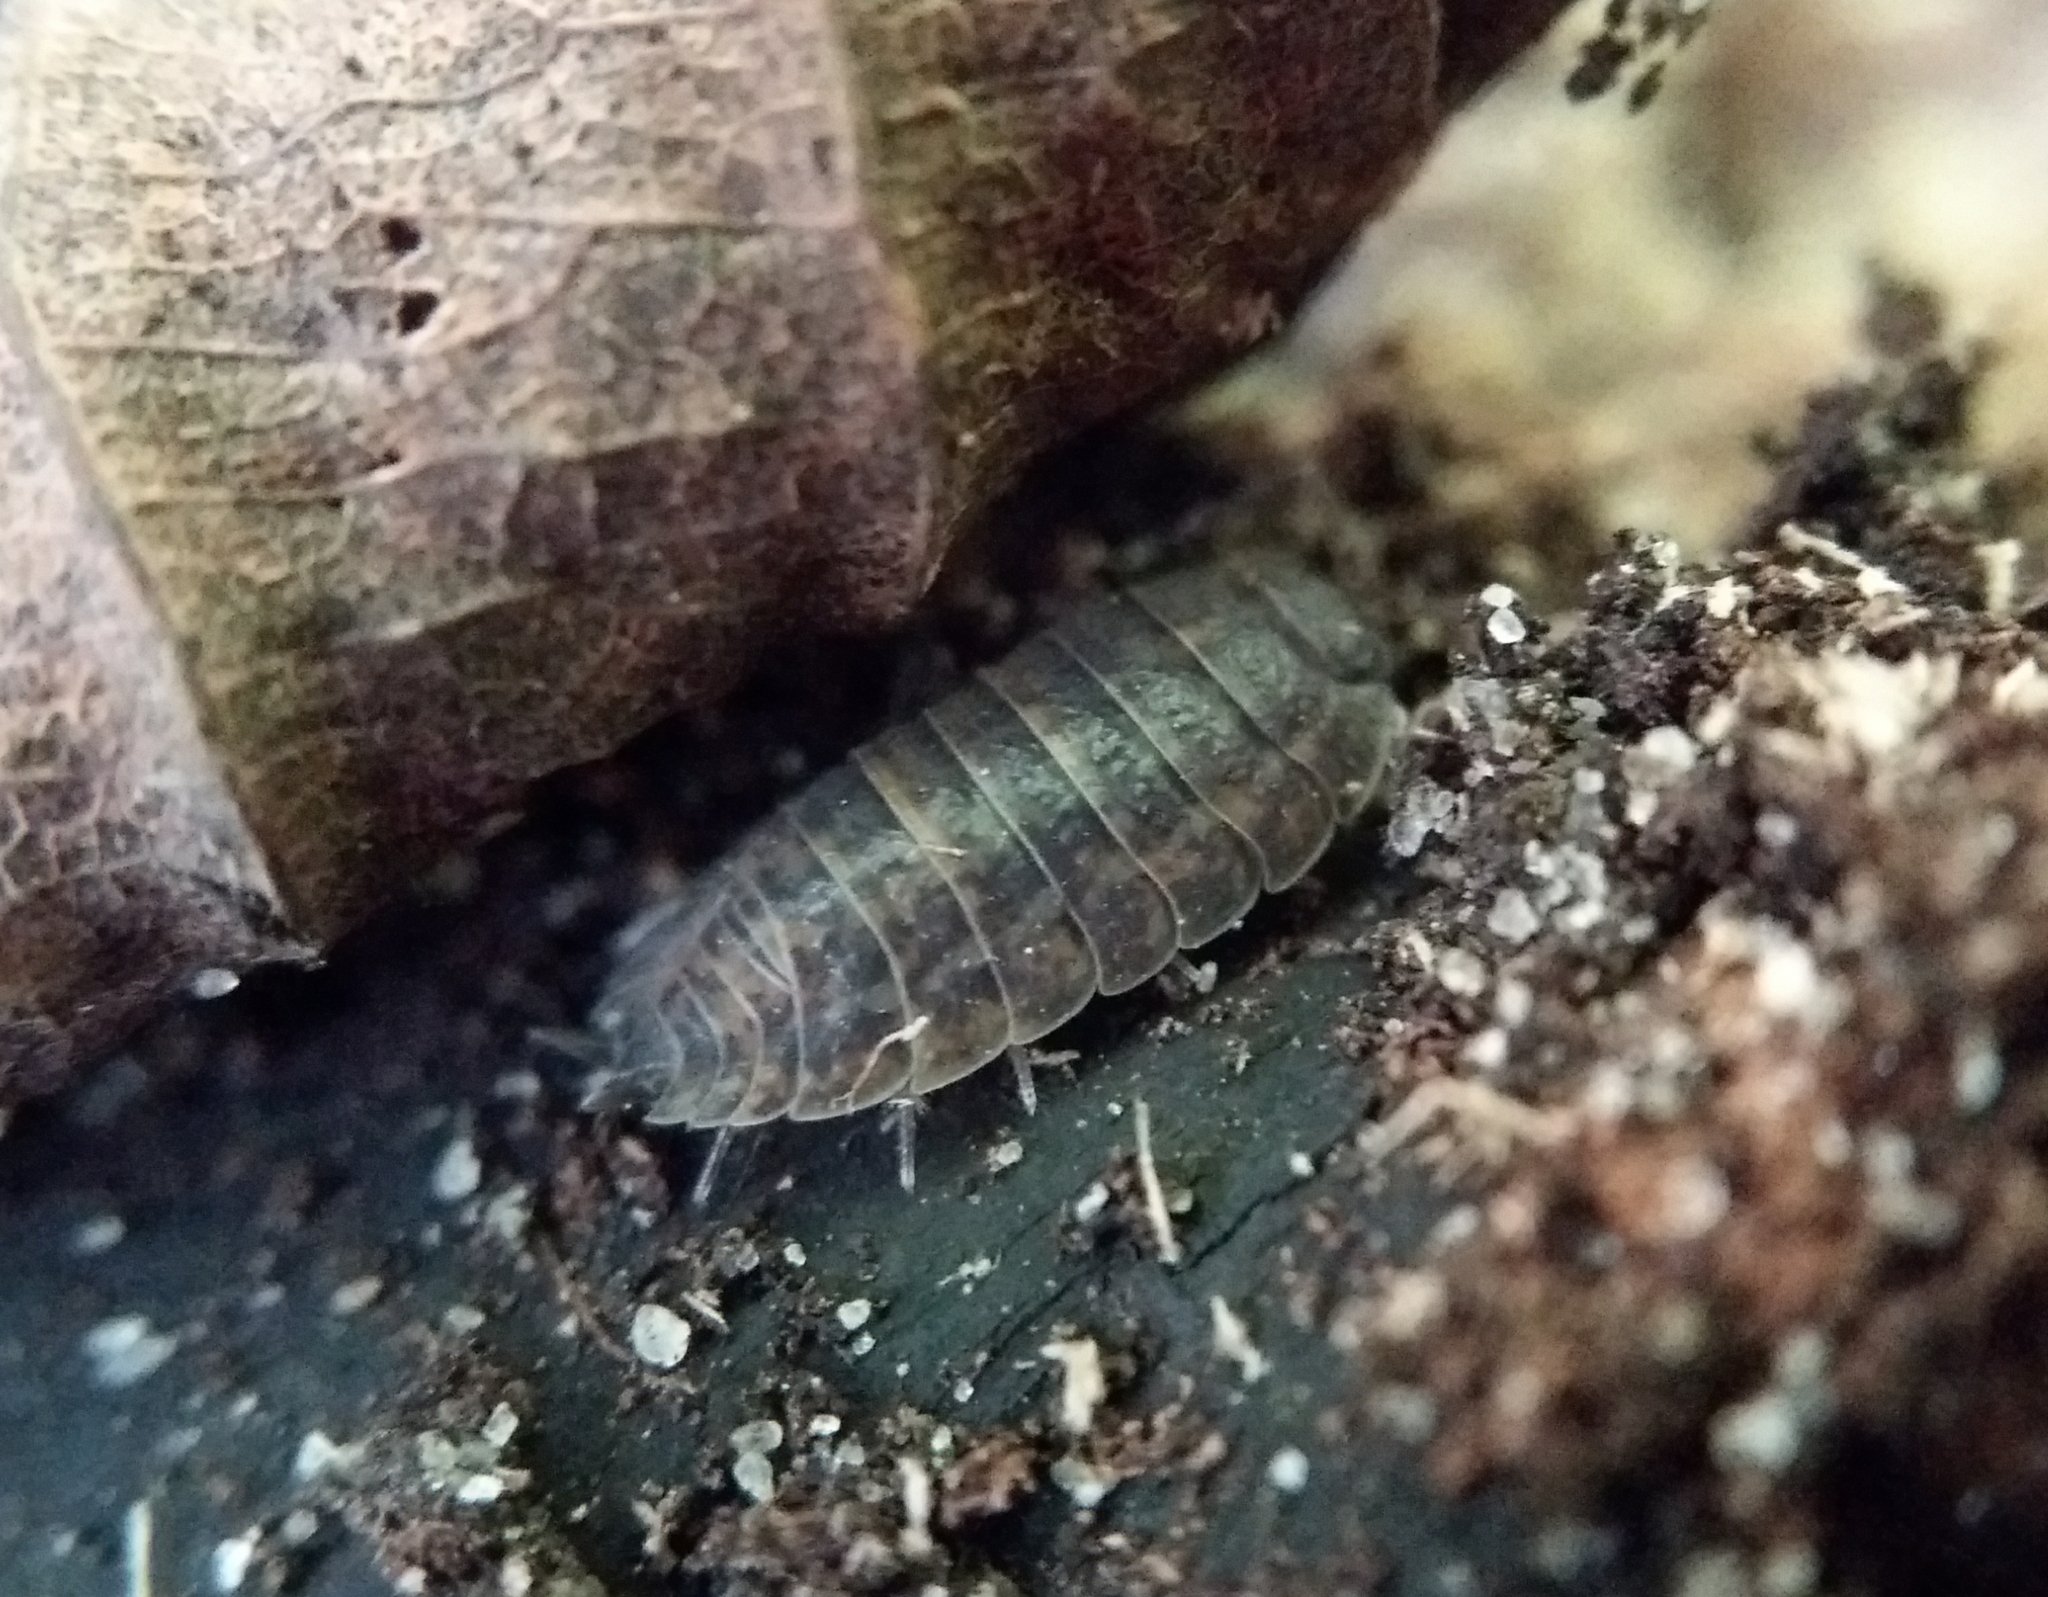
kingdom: Animalia
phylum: Arthropoda
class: Malacostraca
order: Isopoda
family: Trachelipodidae
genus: Trachelipus
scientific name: Trachelipus rathkii
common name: Isopod
